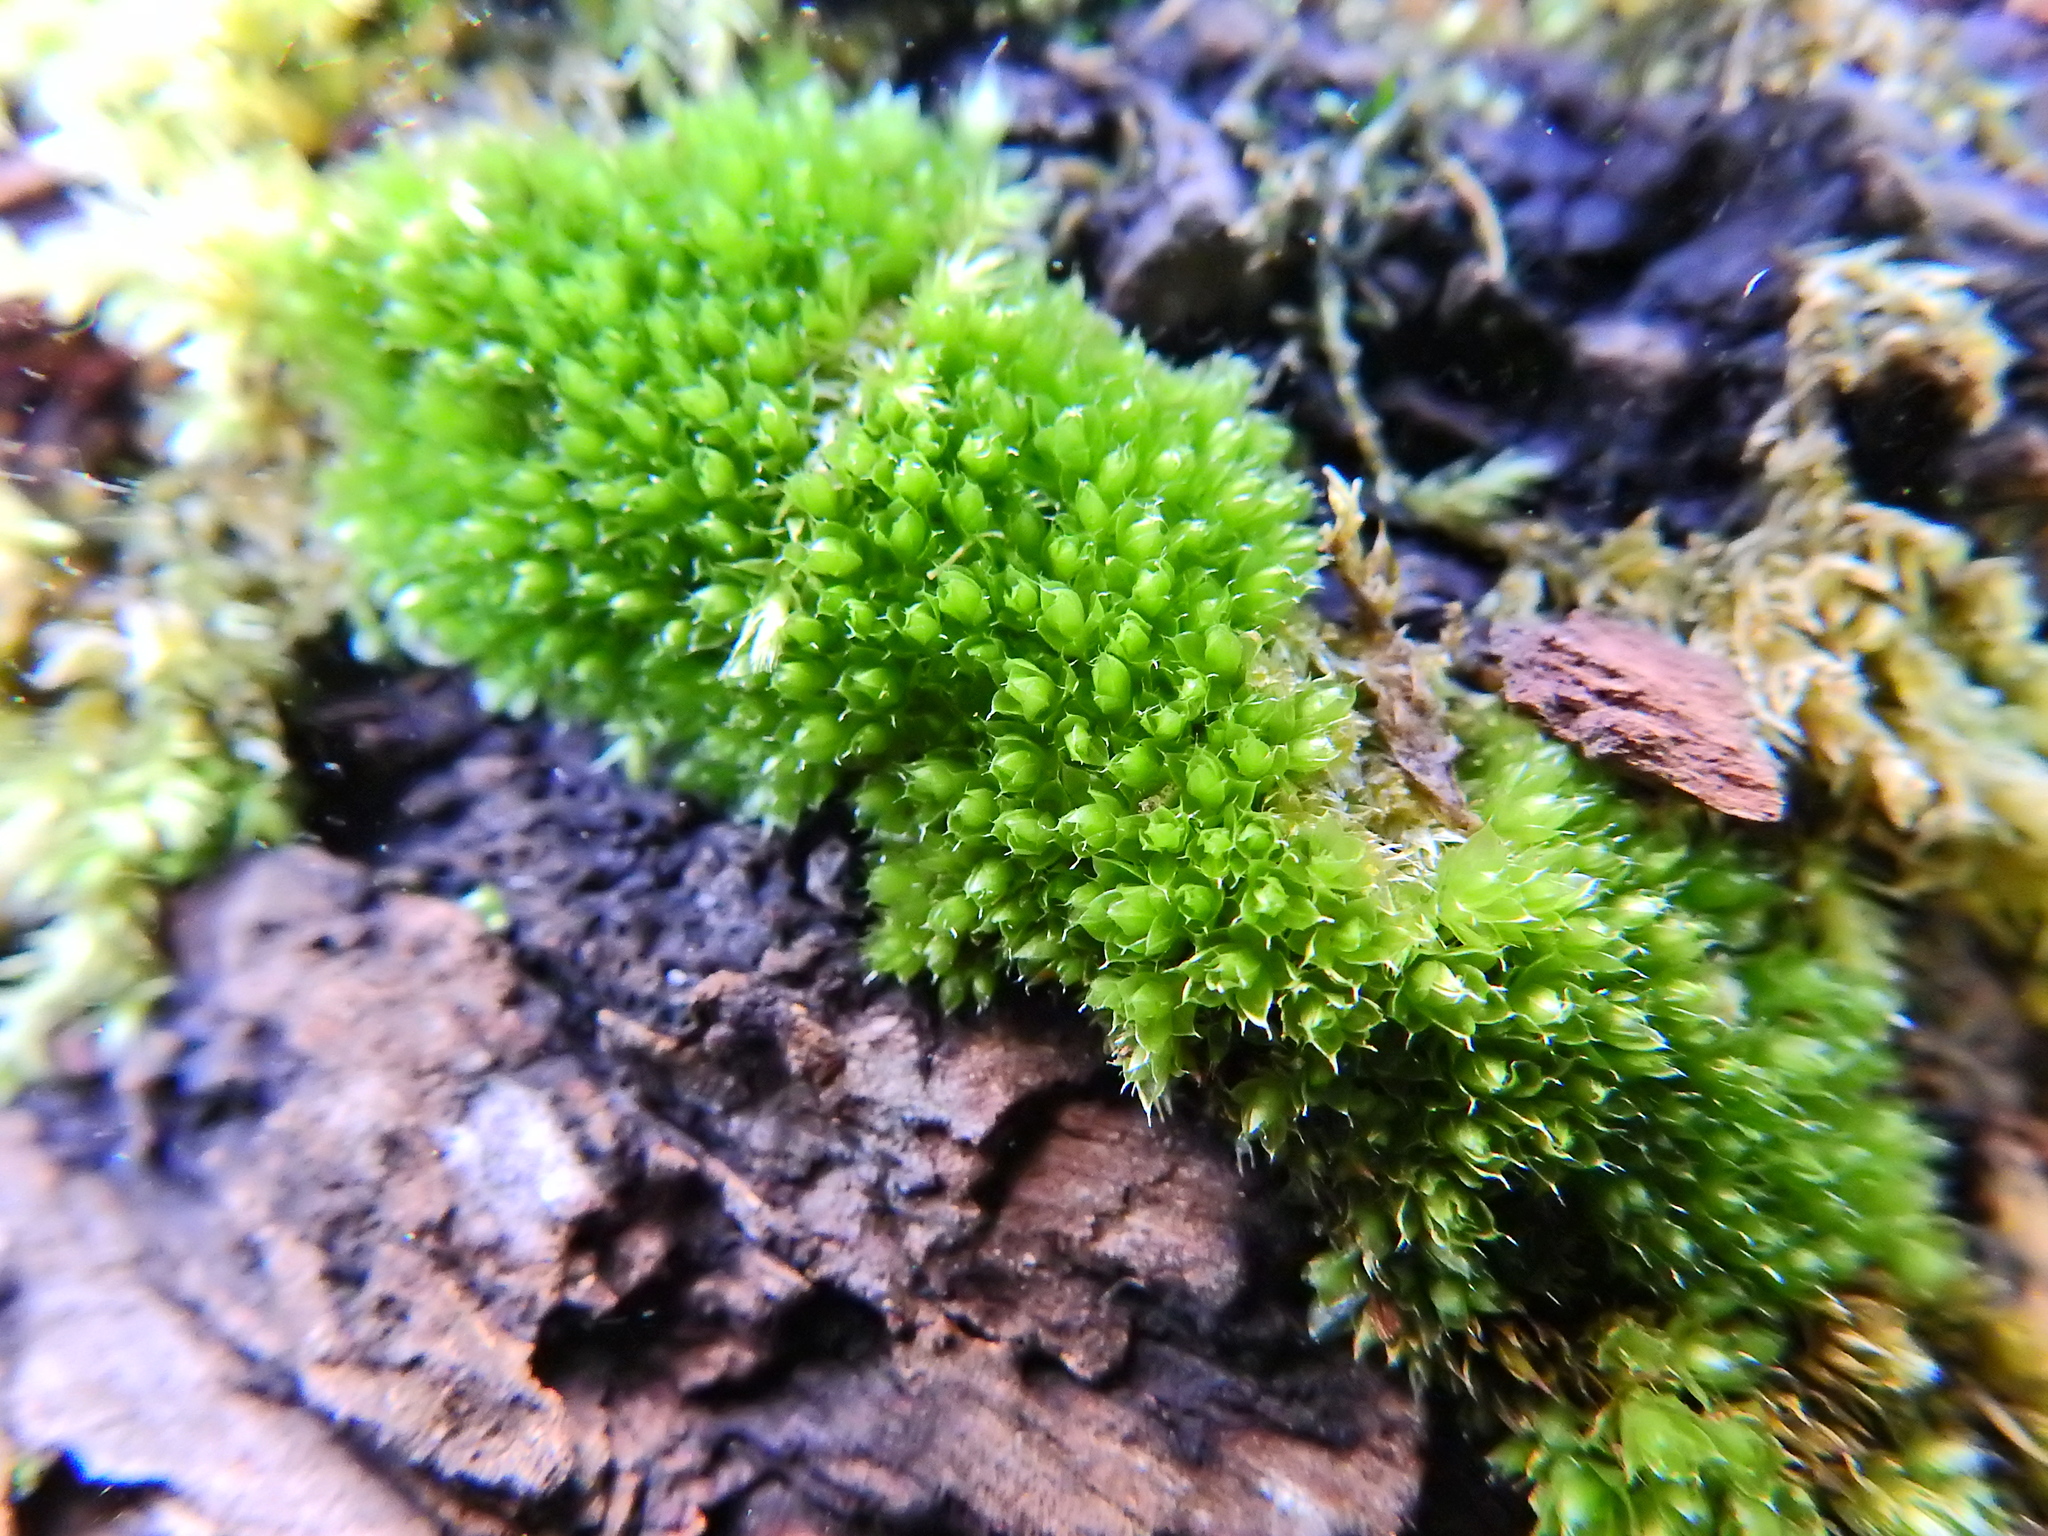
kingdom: Plantae
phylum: Bryophyta
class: Bryopsida
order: Bryales
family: Bryaceae
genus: Rosulabryum
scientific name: Rosulabryum capillare
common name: Capillary thread-moss
